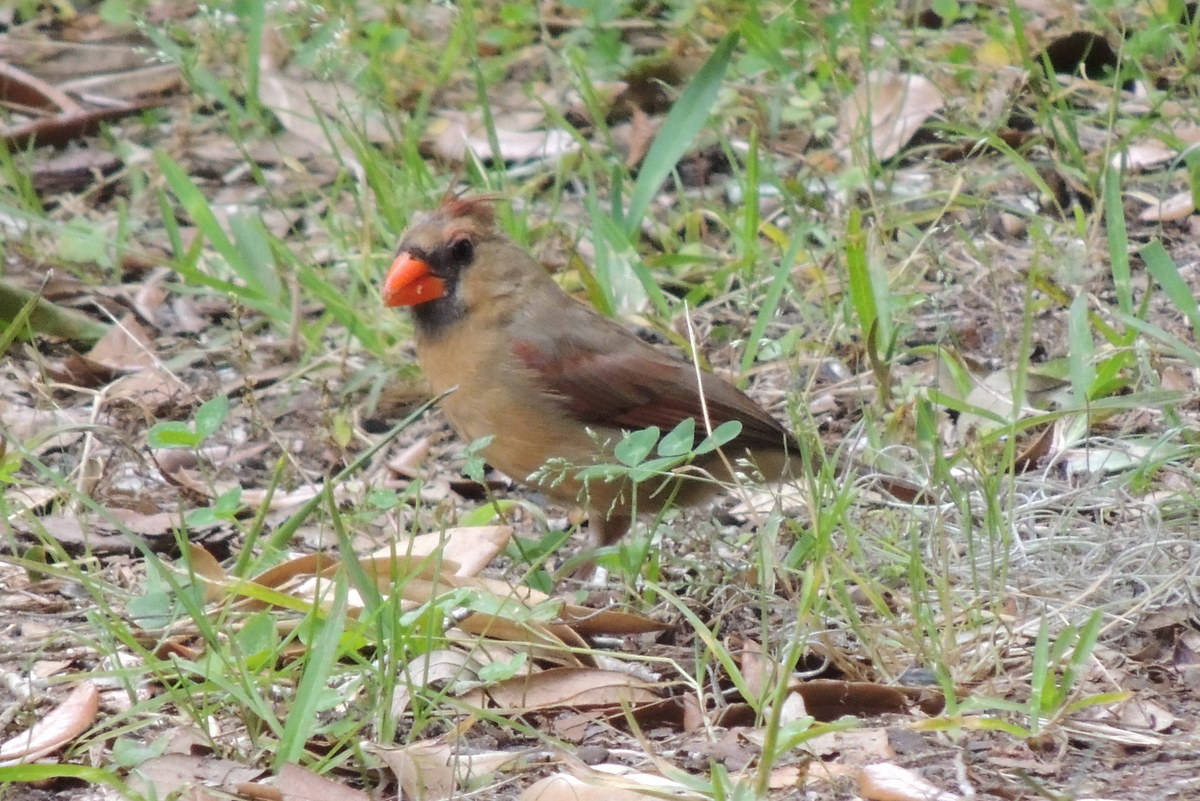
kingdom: Animalia
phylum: Chordata
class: Aves
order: Passeriformes
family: Cardinalidae
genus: Cardinalis
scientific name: Cardinalis cardinalis
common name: Northern cardinal
